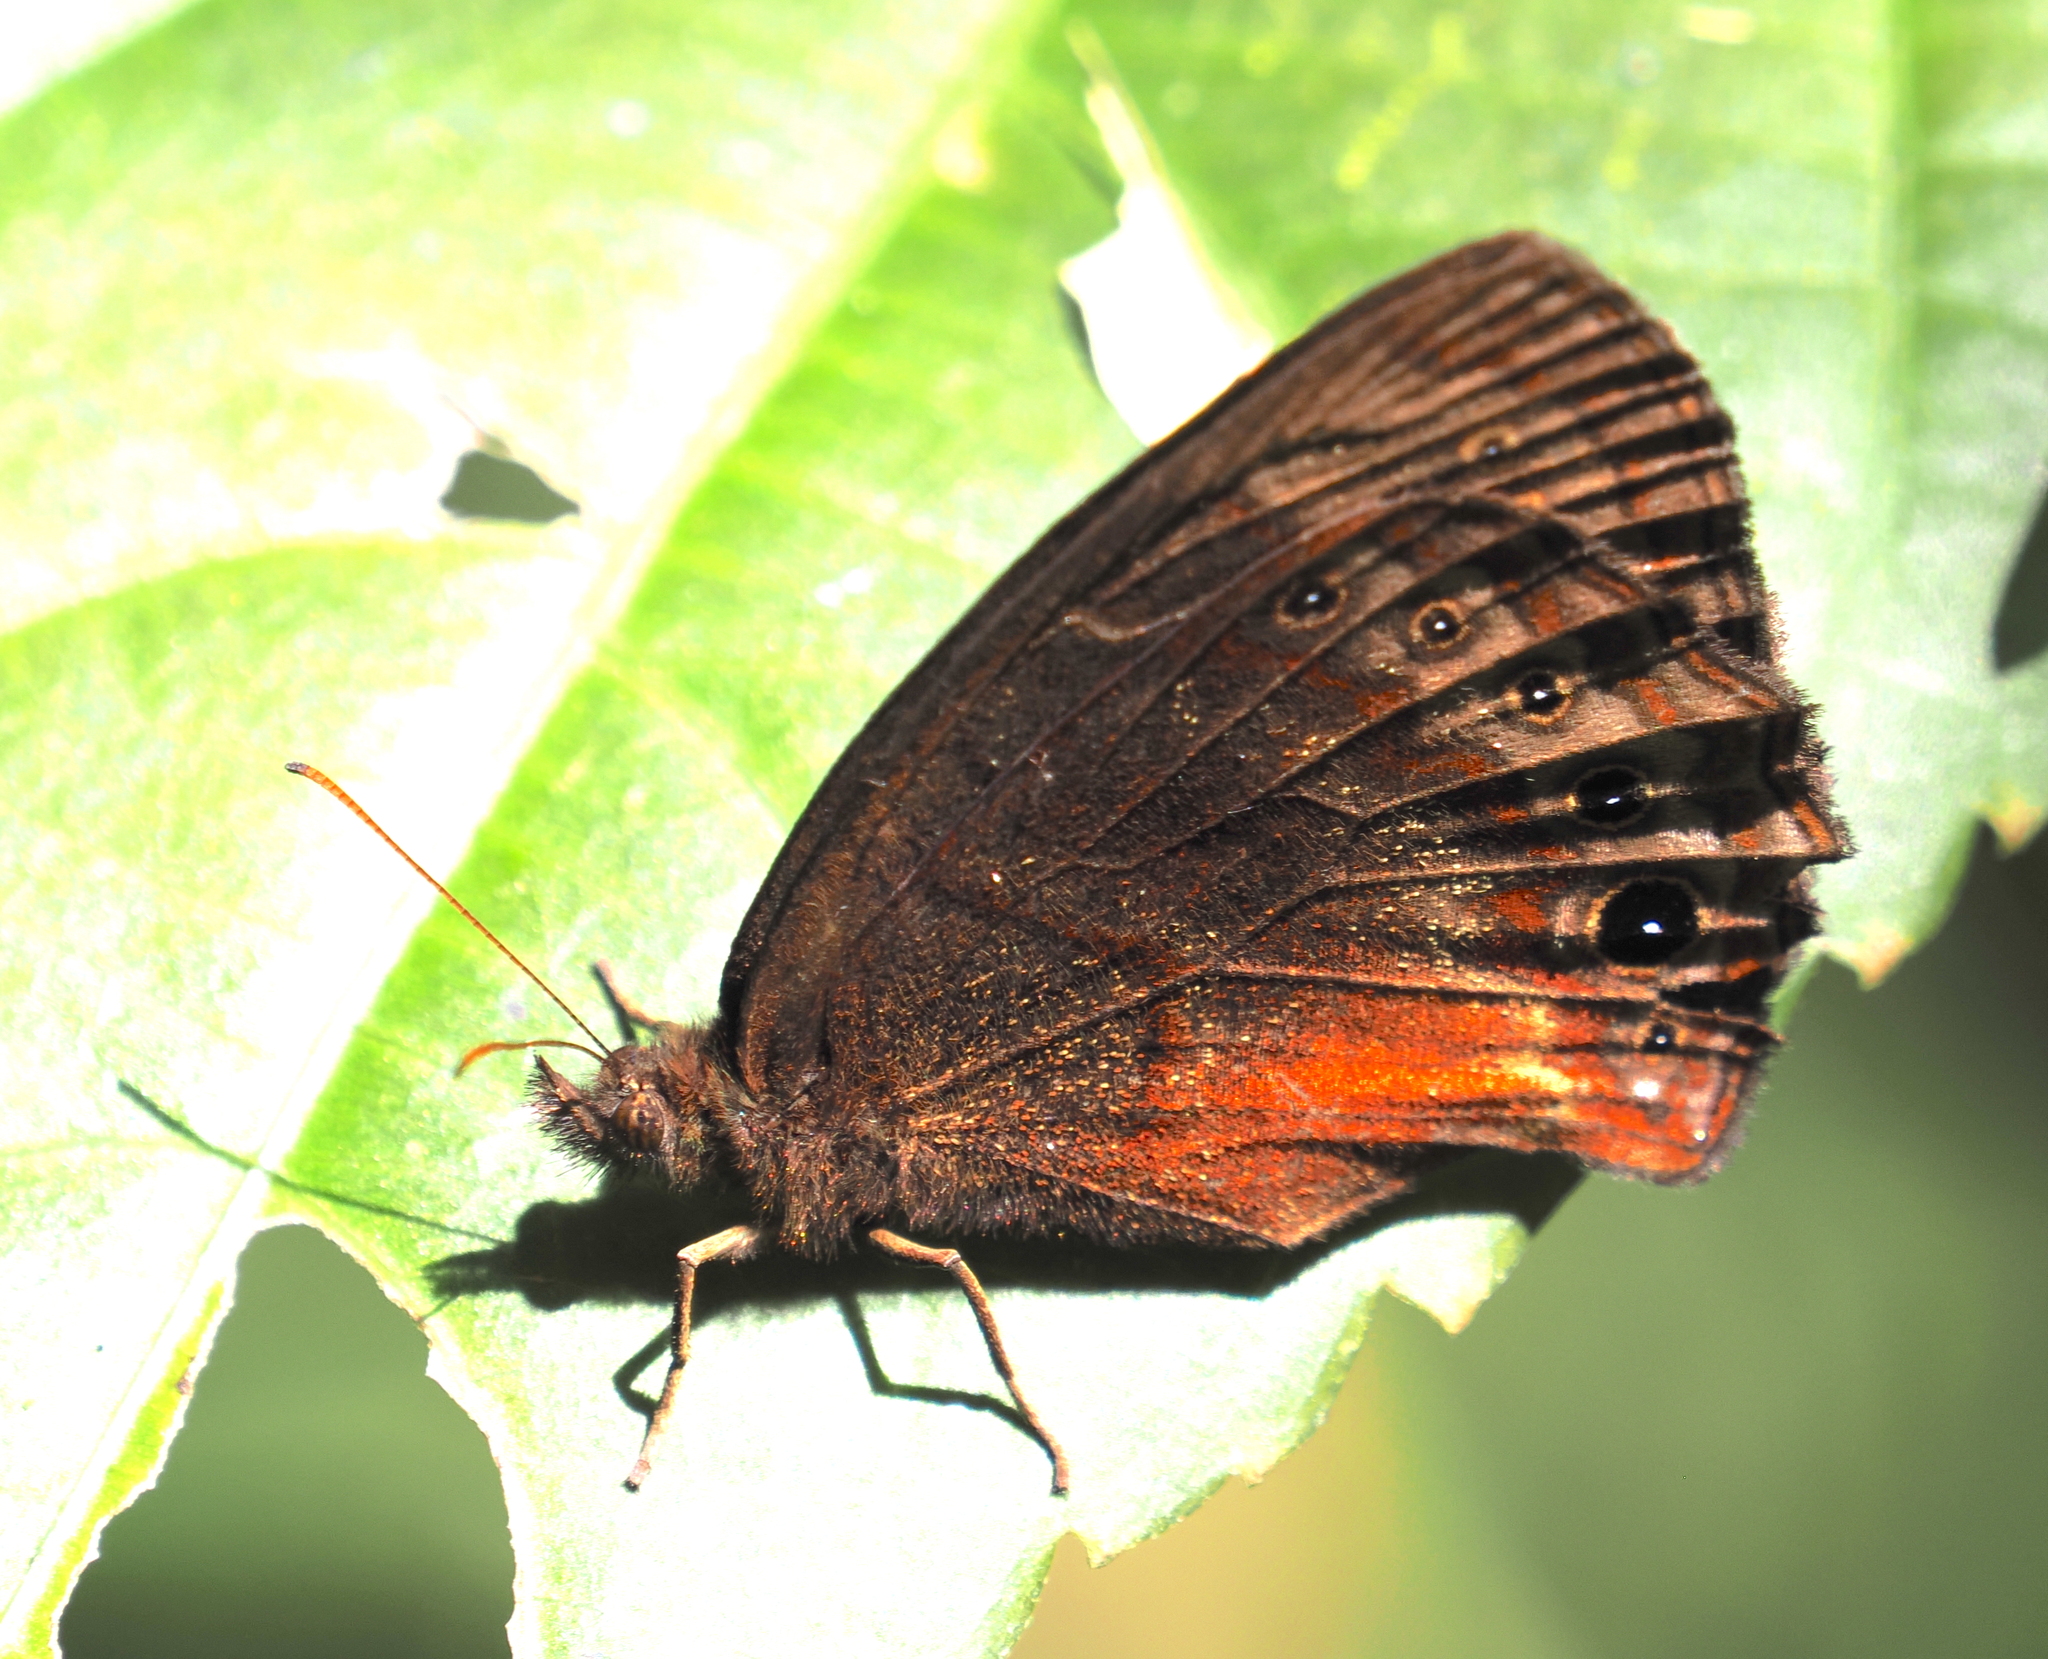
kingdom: Animalia
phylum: Arthropoda
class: Insecta
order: Lepidoptera
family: Nymphalidae
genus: Eretris
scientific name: Eretris calisto
